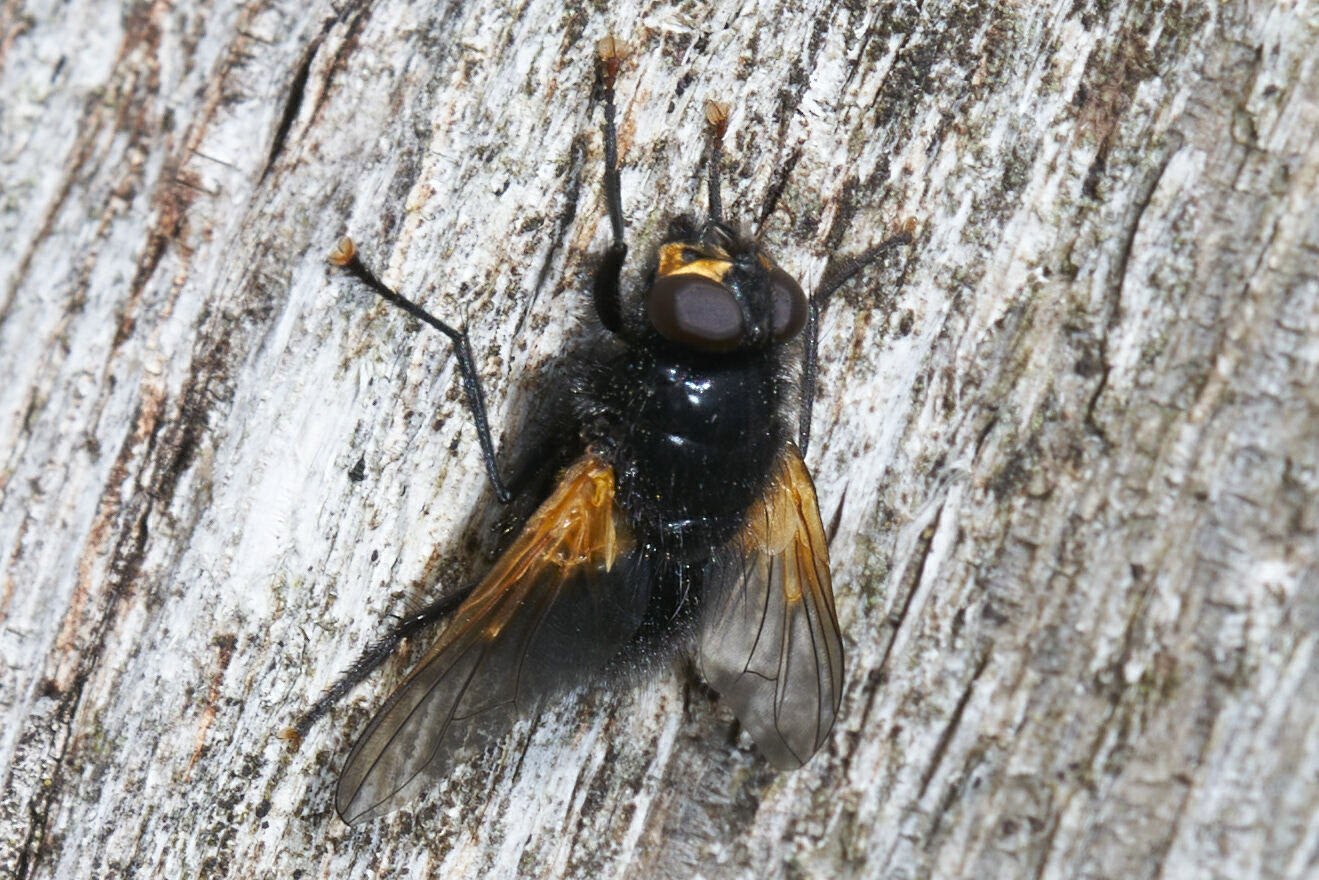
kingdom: Animalia
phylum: Arthropoda
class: Insecta
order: Diptera
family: Muscidae
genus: Mesembrina
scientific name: Mesembrina meridiana
